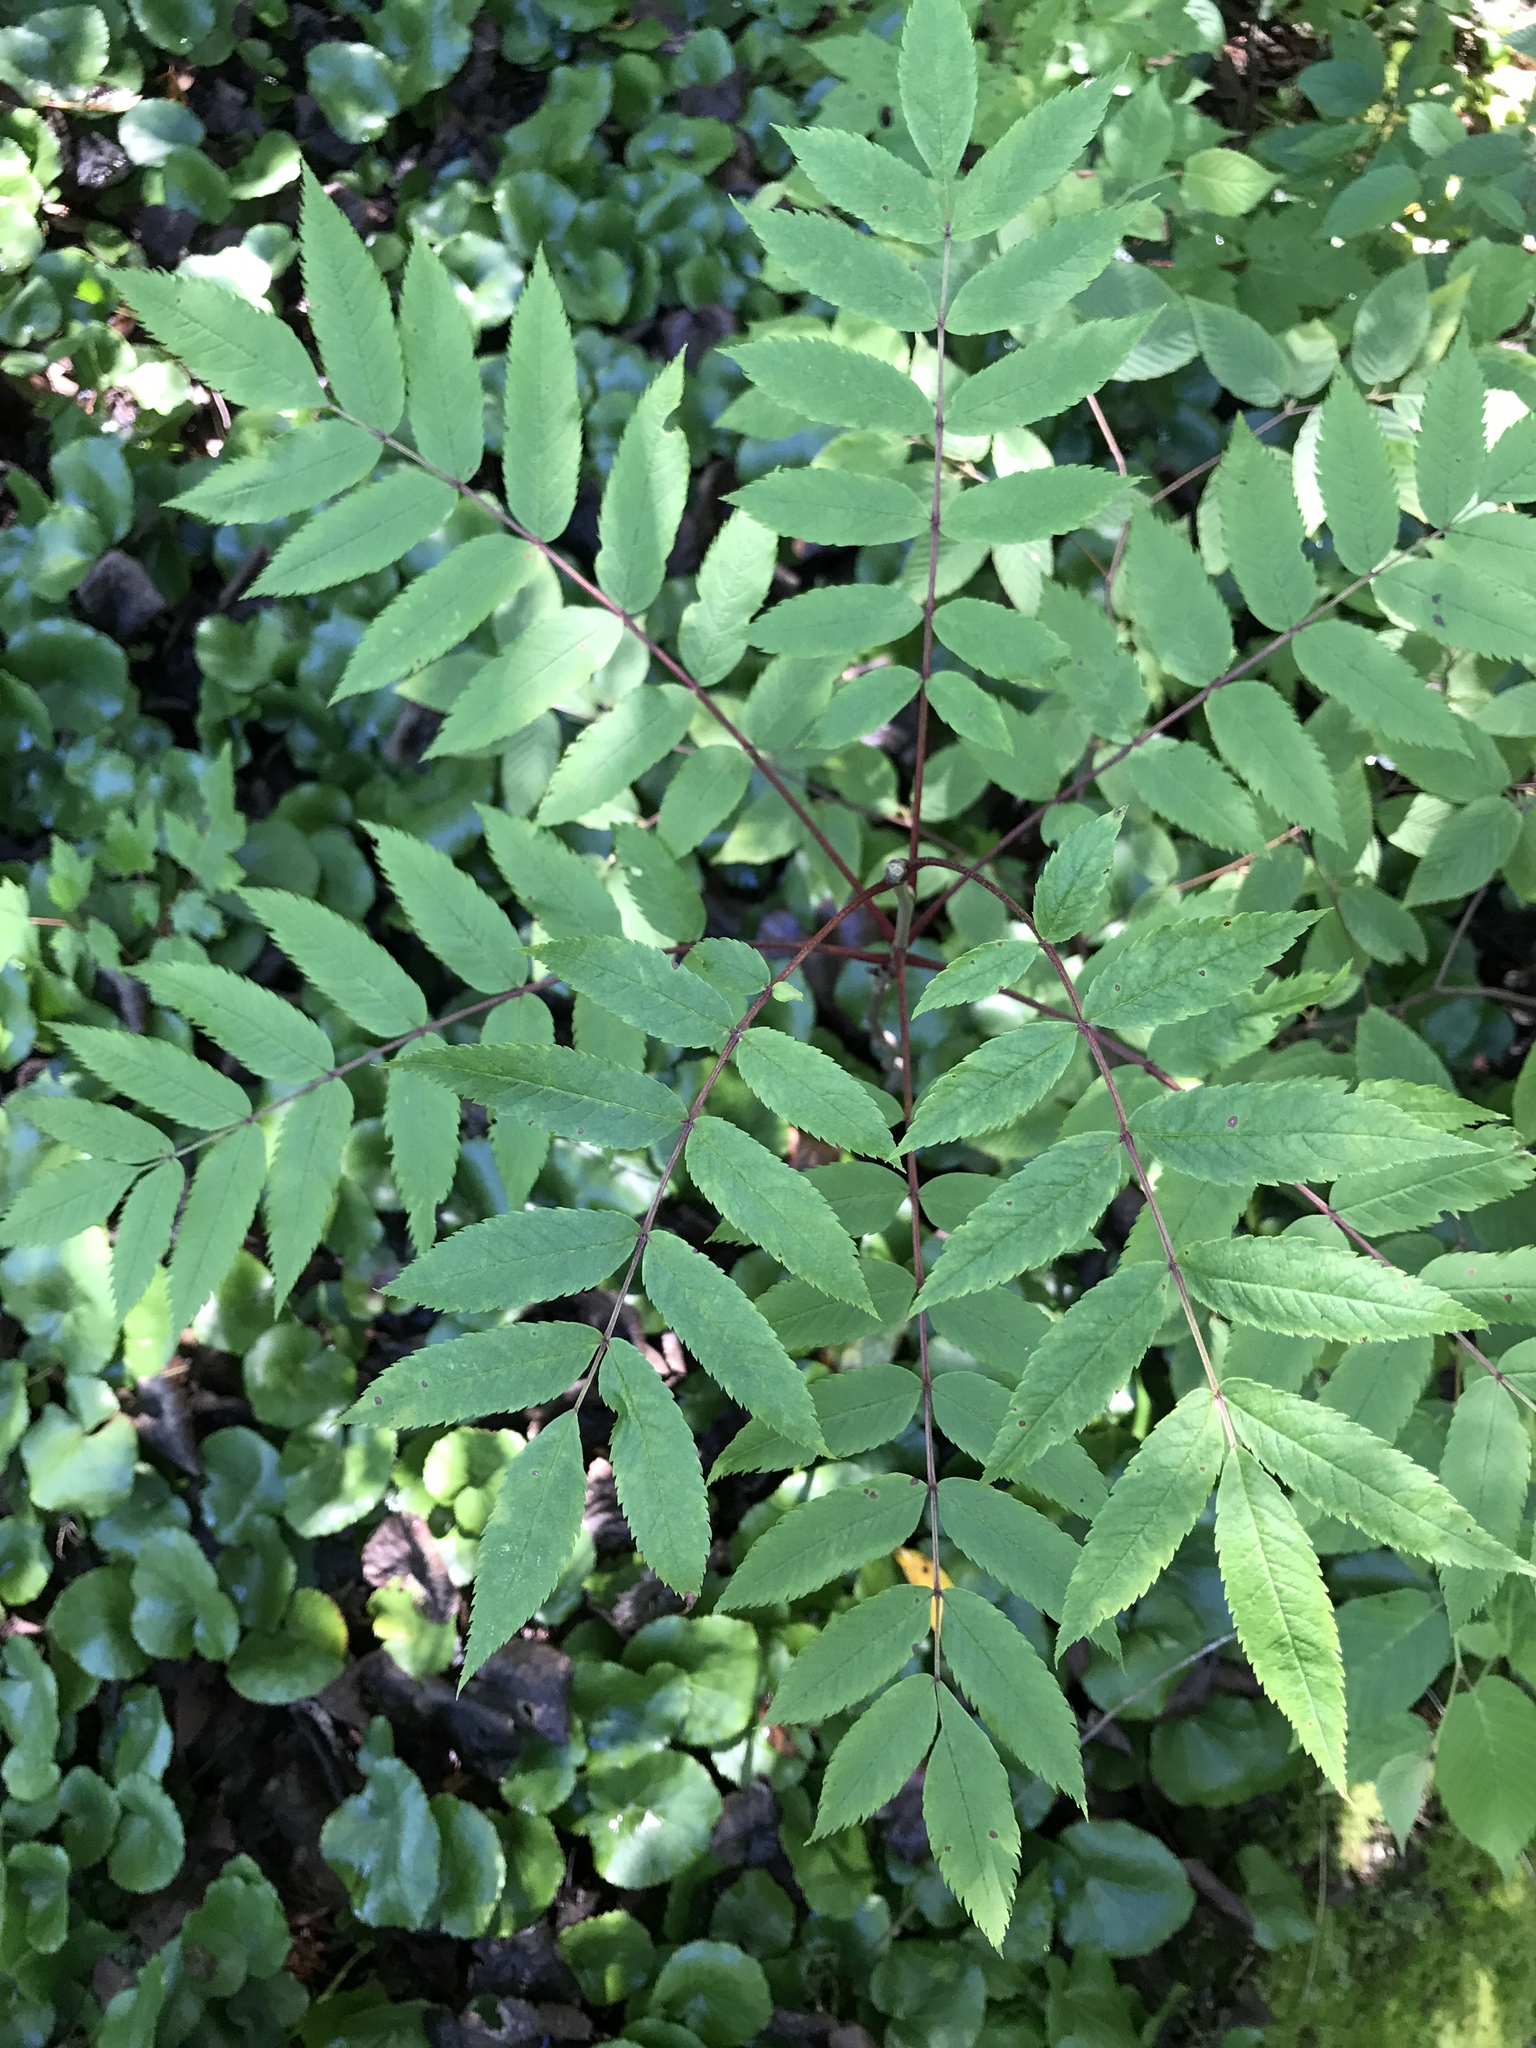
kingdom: Plantae
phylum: Tracheophyta
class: Magnoliopsida
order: Rosales
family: Rosaceae
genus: Sorbus
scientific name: Sorbus americana
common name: American mountain-ash
